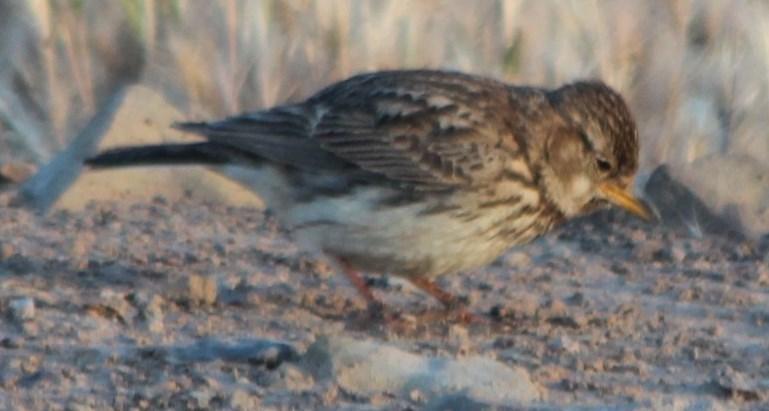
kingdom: Animalia
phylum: Chordata
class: Aves
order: Passeriformes
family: Alaudidae
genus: Galerida
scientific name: Galerida magnirostris
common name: Large-billed lark
